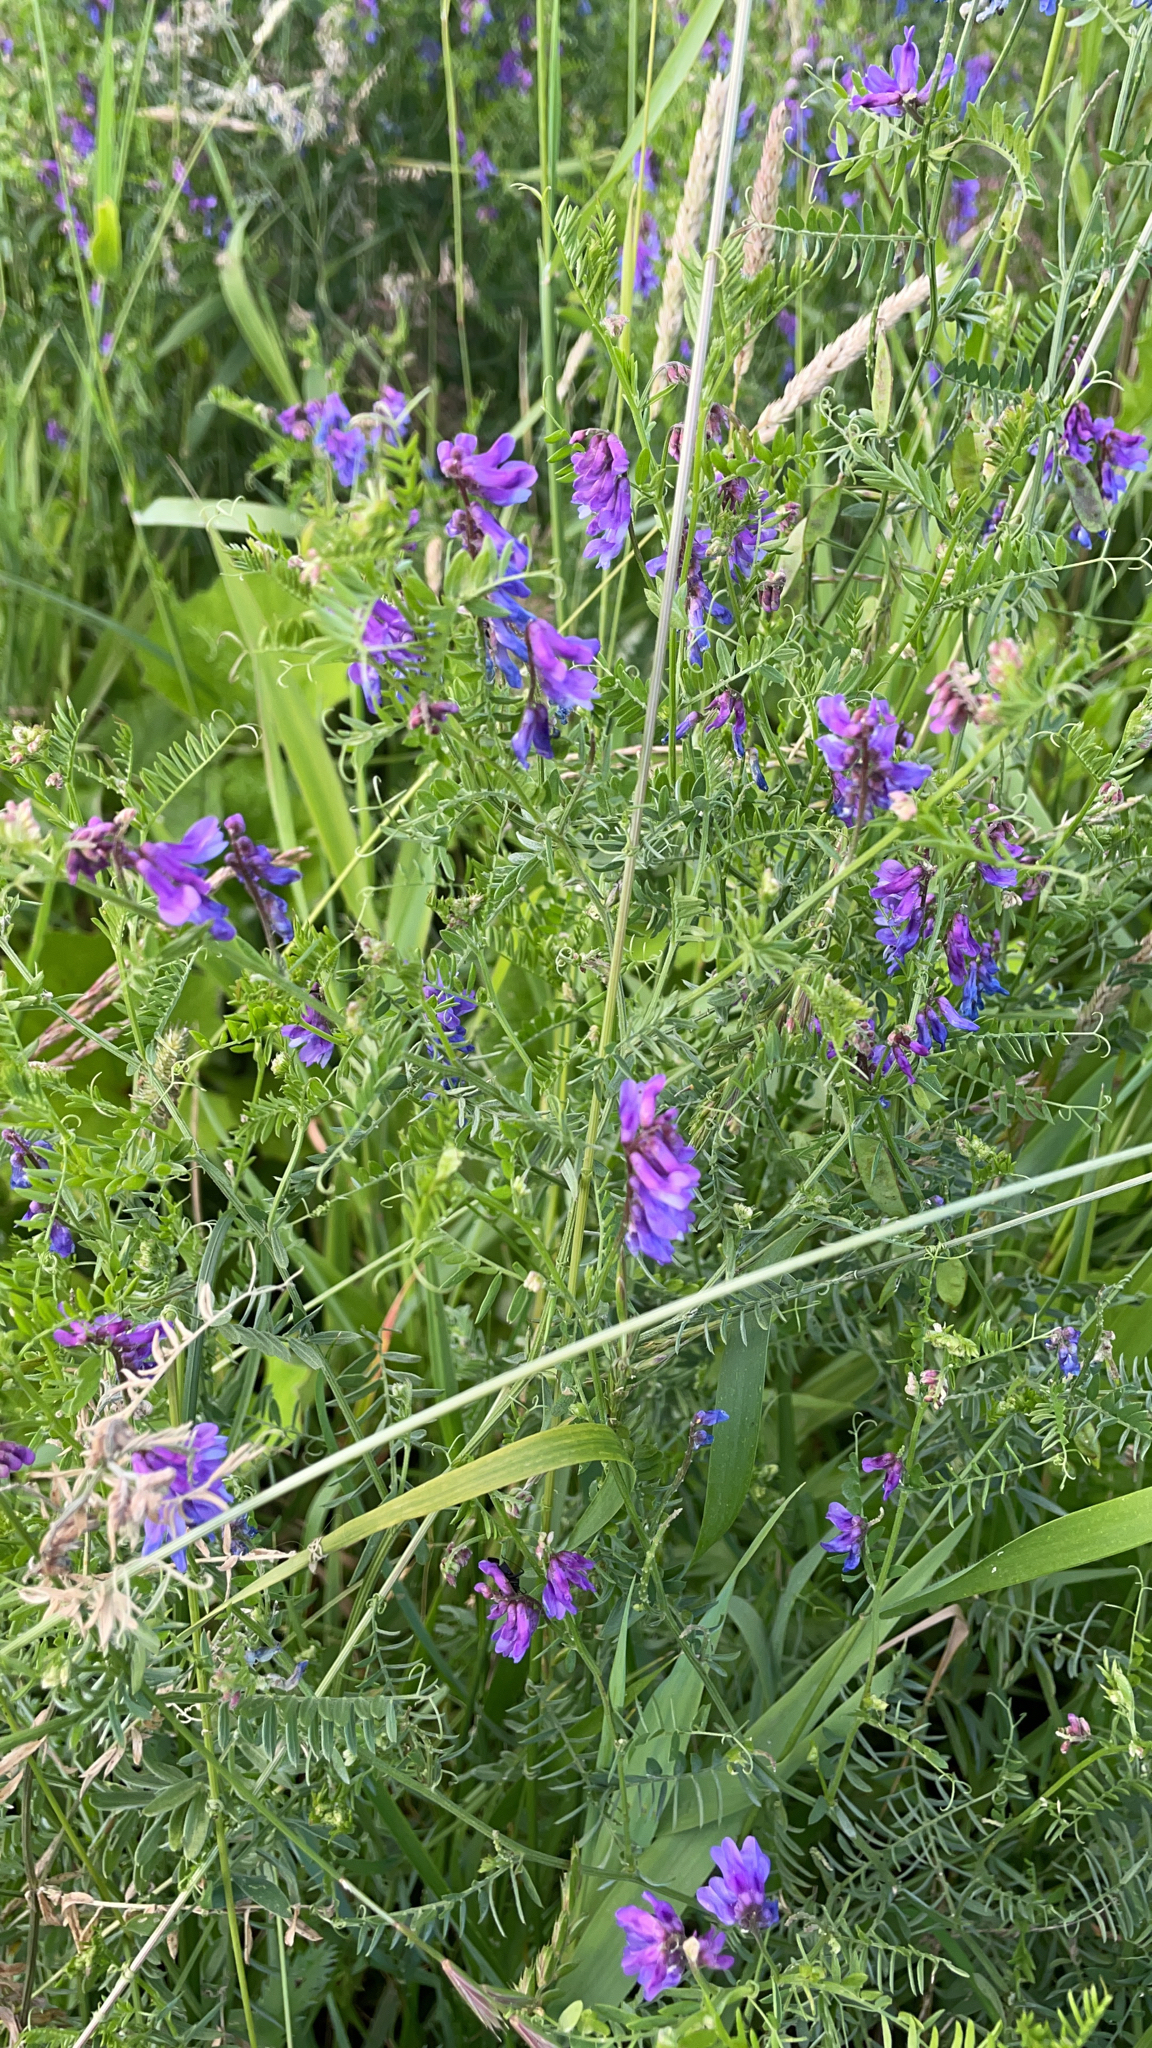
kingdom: Plantae
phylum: Tracheophyta
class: Magnoliopsida
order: Fabales
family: Fabaceae
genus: Vicia
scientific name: Vicia cracca
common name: Bird vetch
